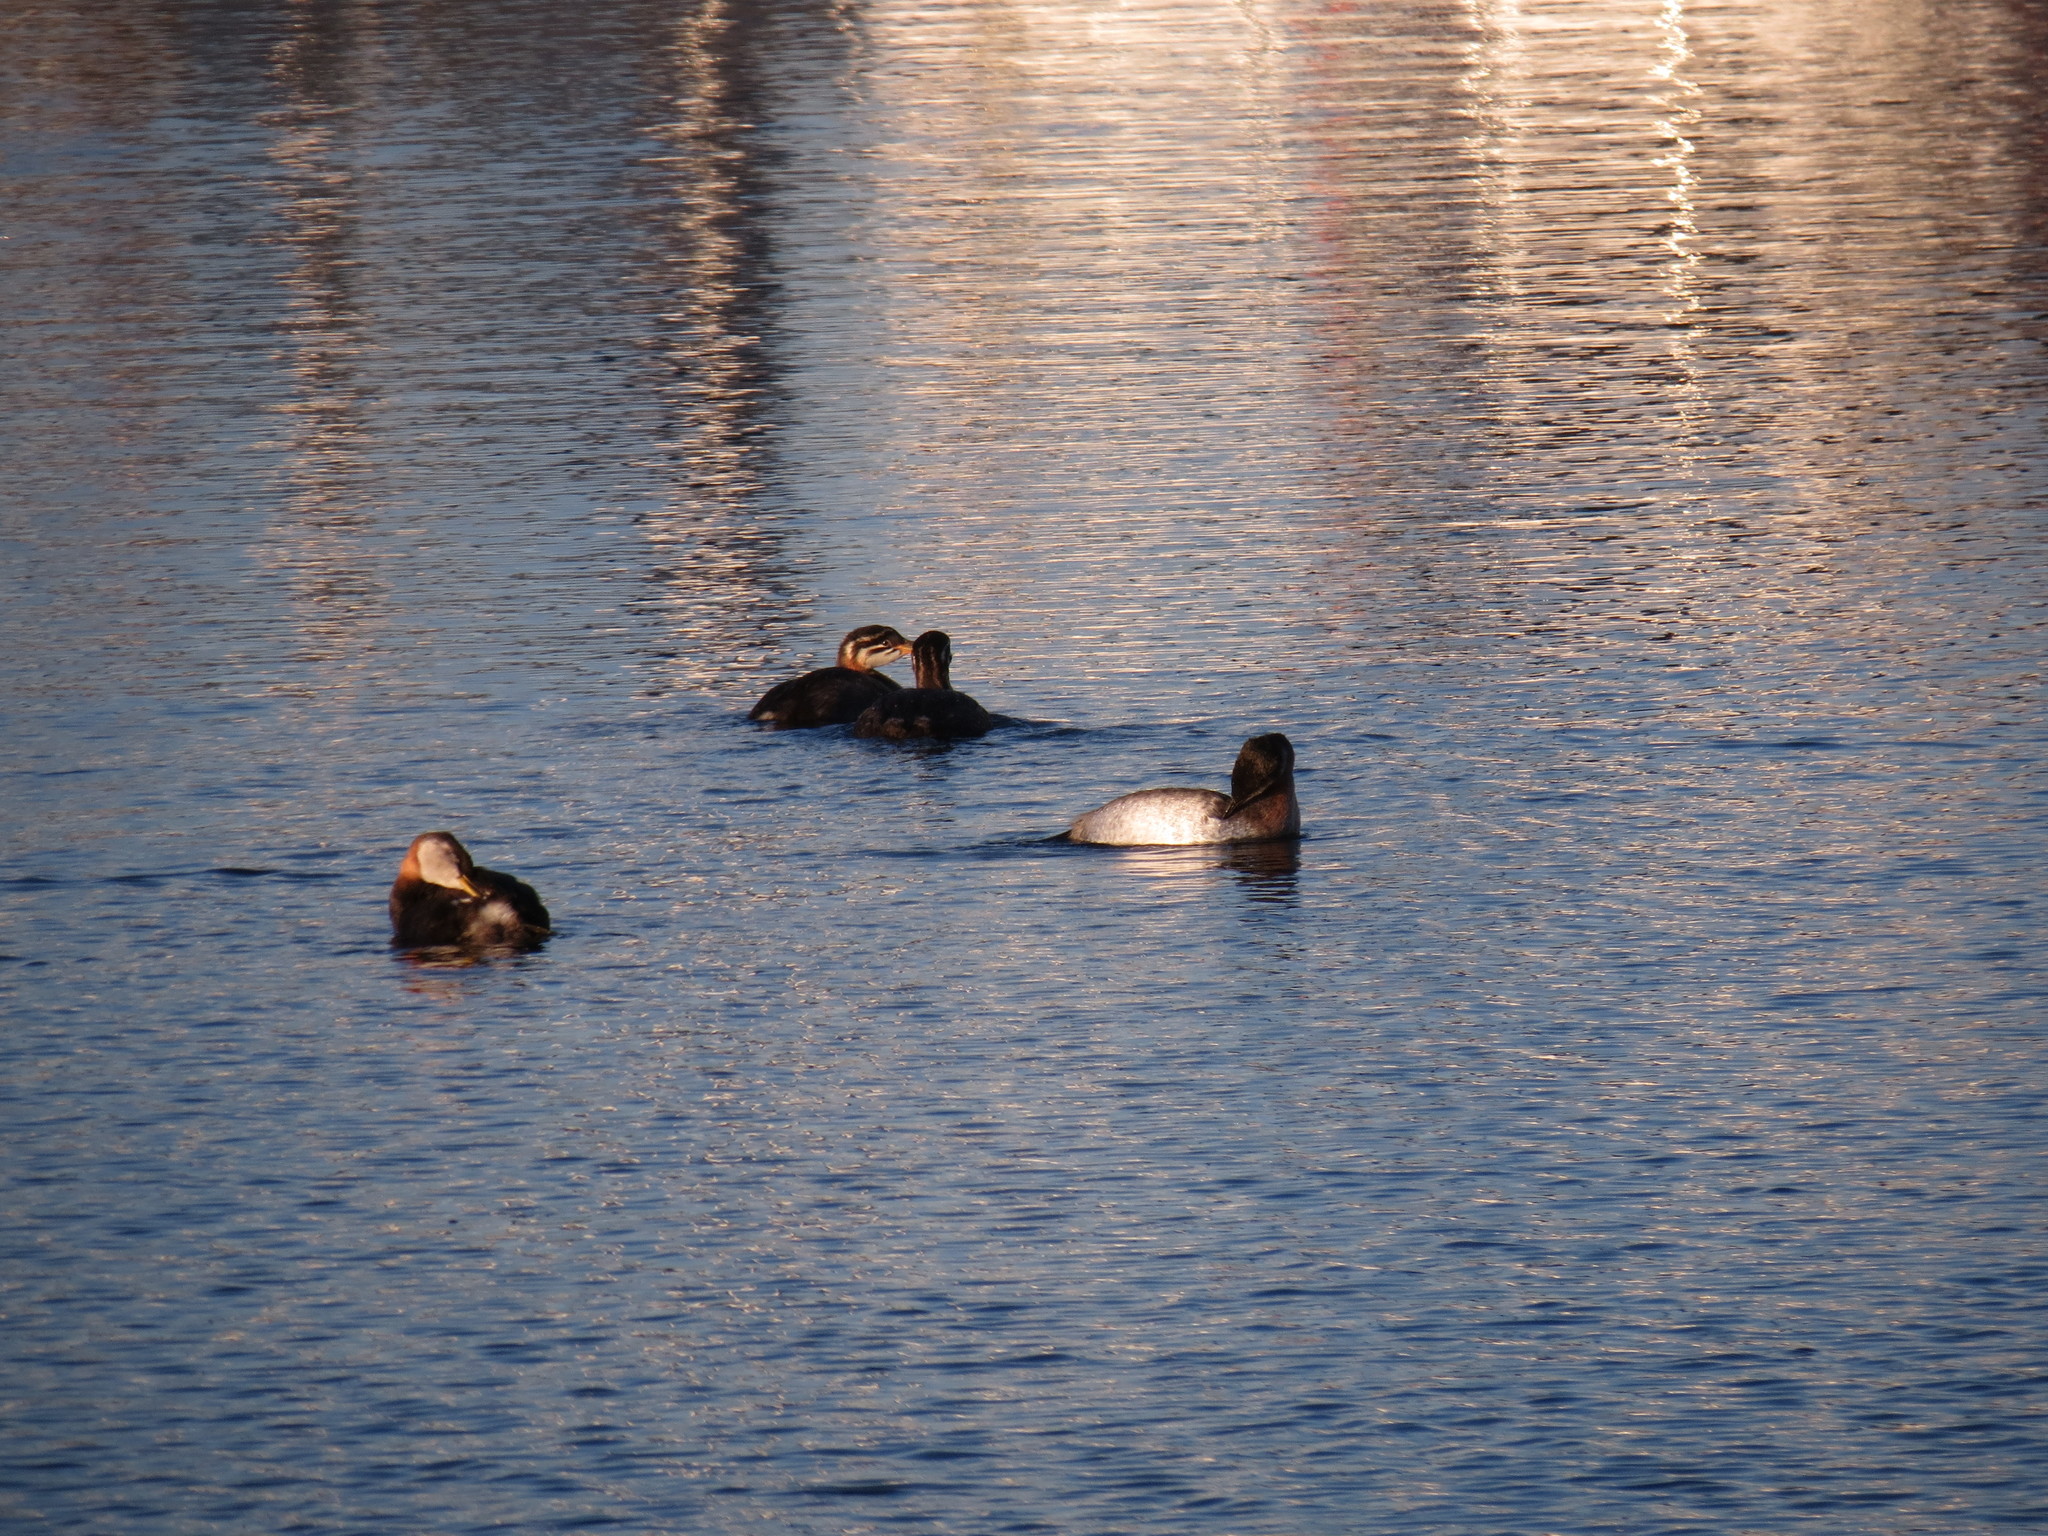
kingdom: Animalia
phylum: Chordata
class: Aves
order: Podicipediformes
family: Podicipedidae
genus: Podiceps
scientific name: Podiceps grisegena
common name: Red-necked grebe
